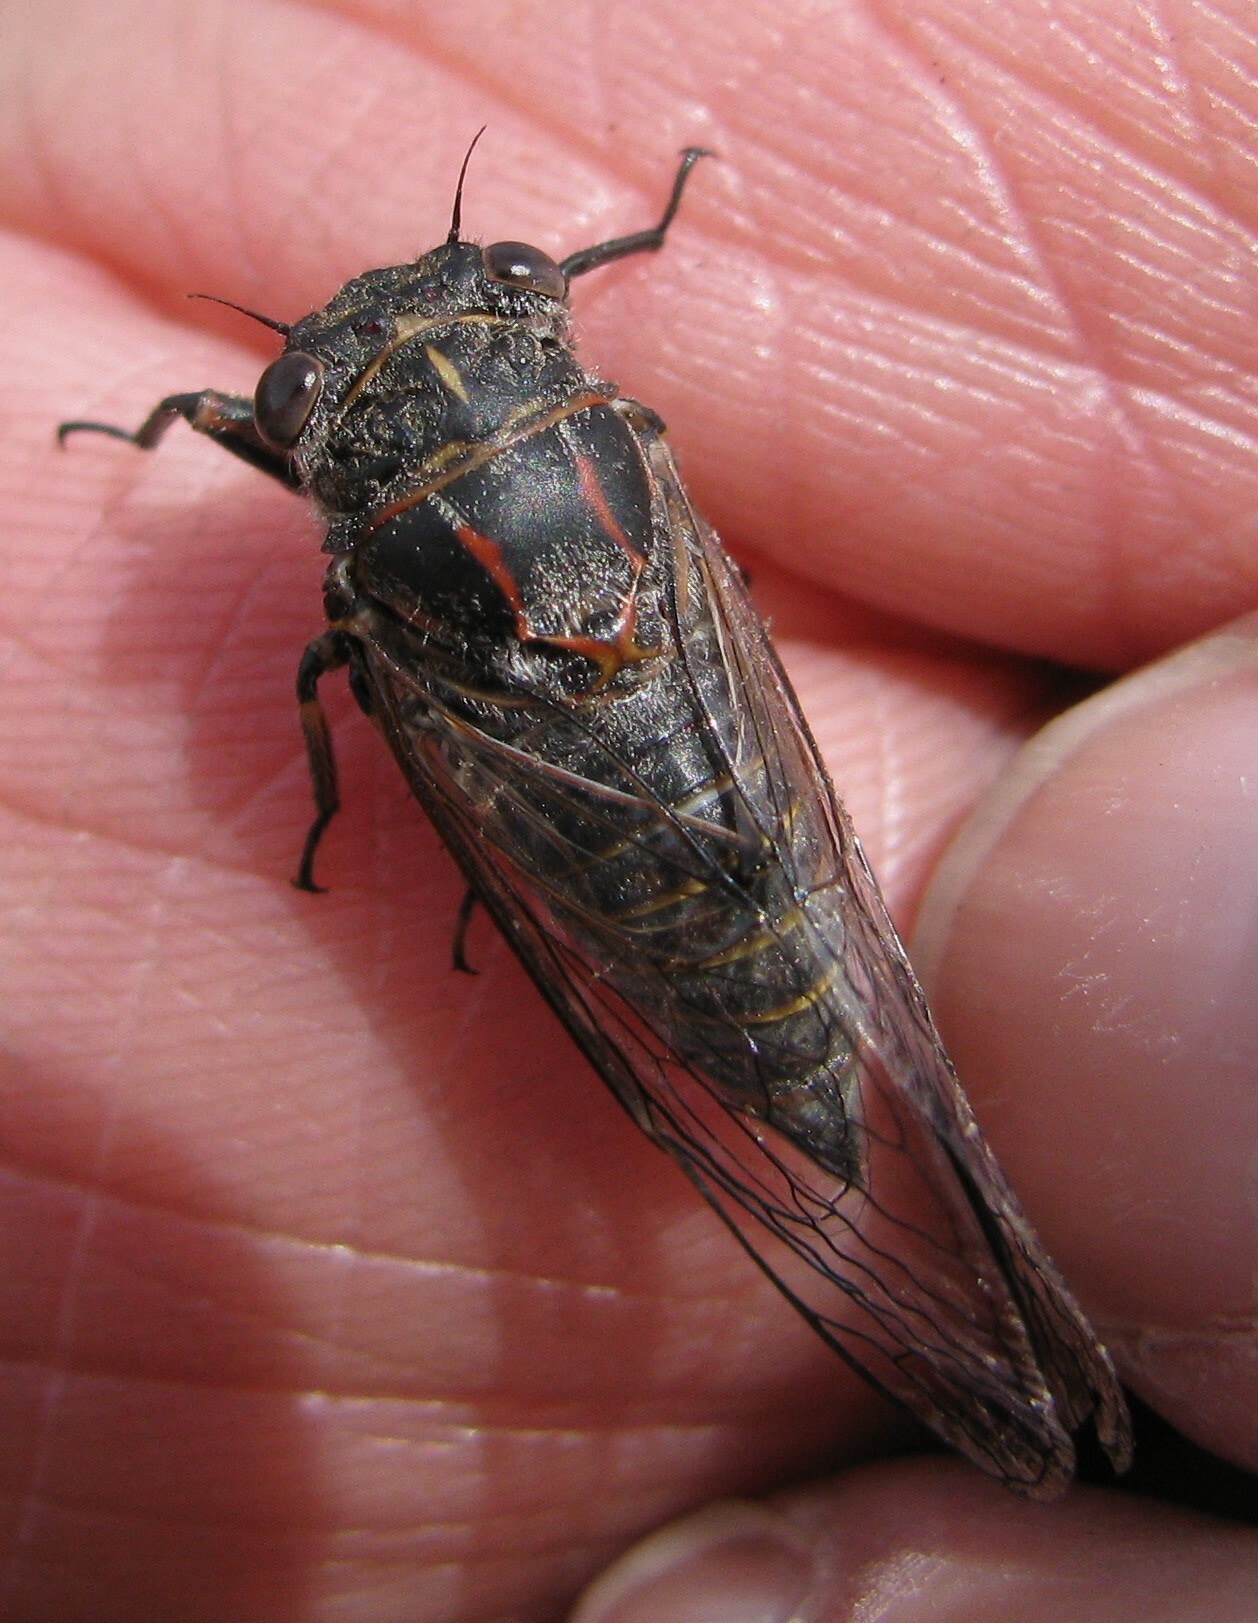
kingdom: Animalia
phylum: Arthropoda
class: Insecta
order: Hemiptera
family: Cicadidae
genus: Atrapsalta
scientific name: Atrapsalta furcilla
